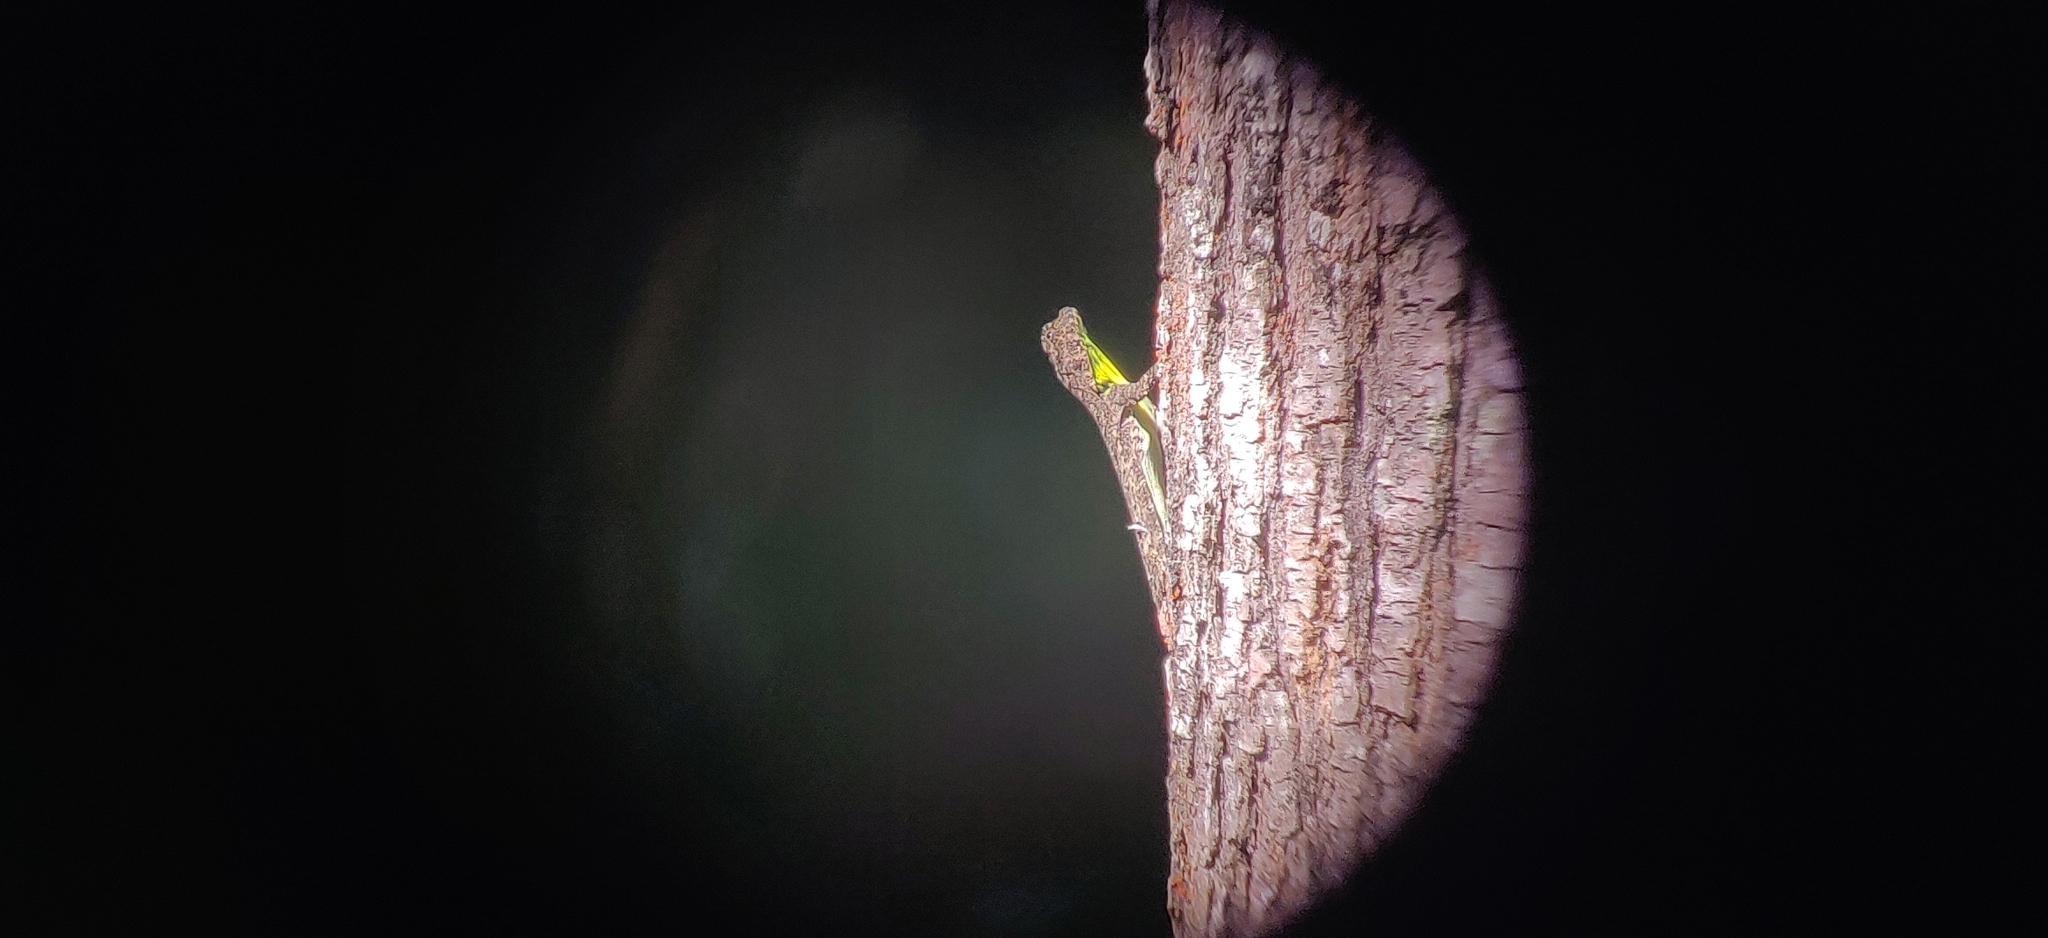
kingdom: Animalia
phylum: Chordata
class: Squamata
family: Agamidae
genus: Draco
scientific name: Draco dussumieri
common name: Southern flying lizard
